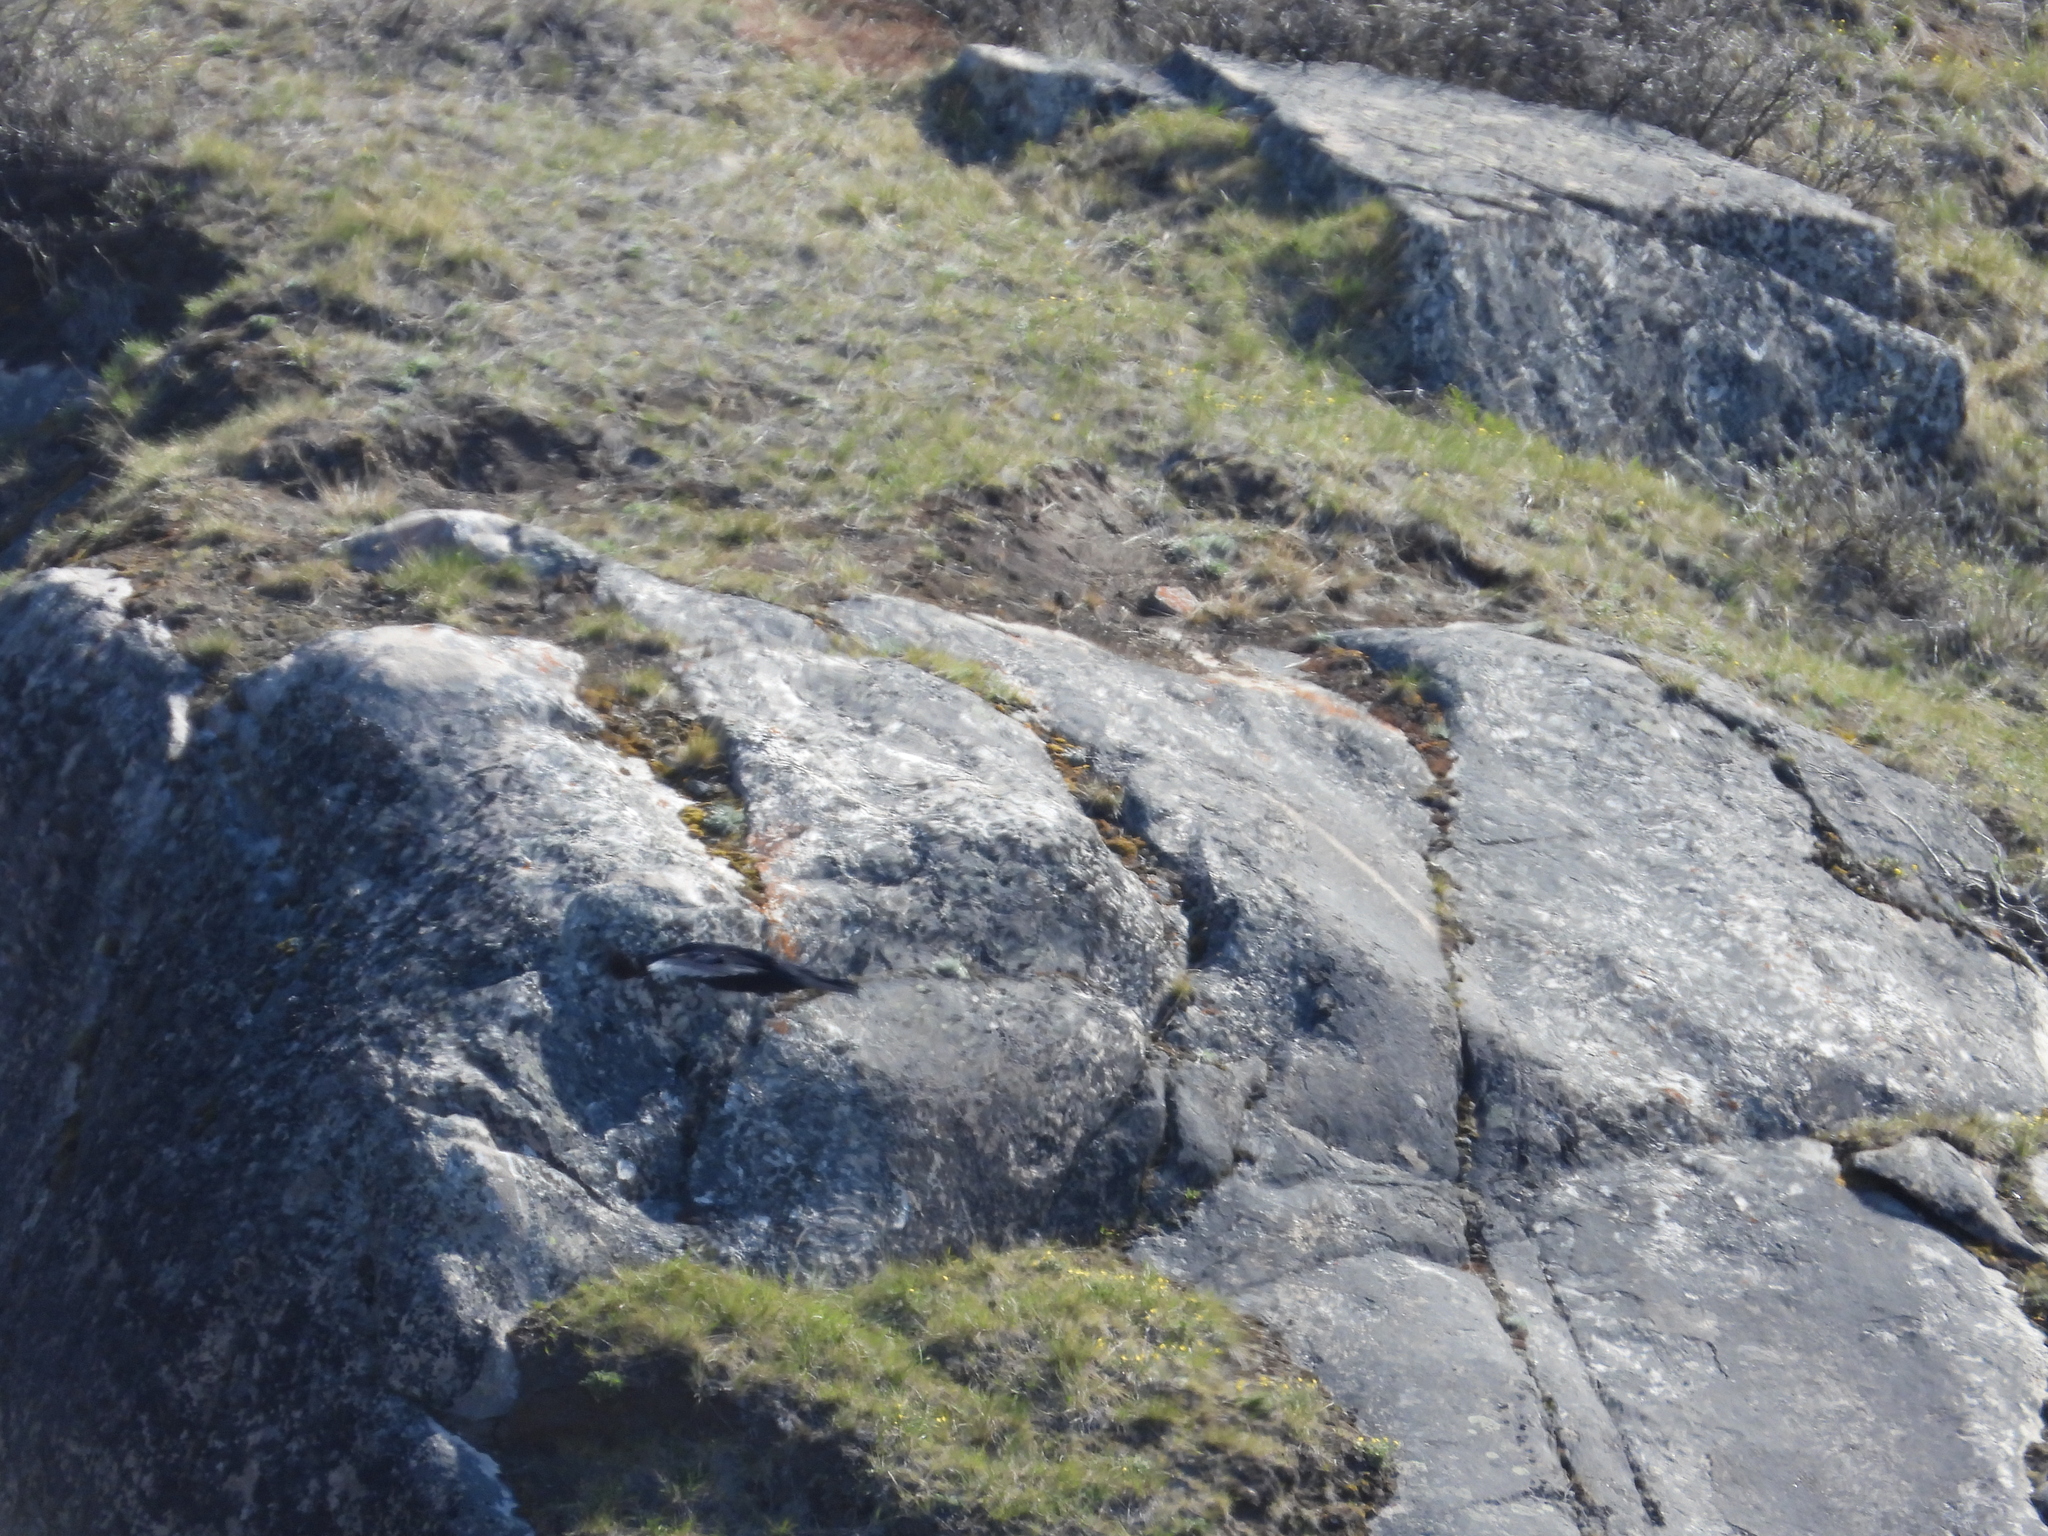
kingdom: Animalia
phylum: Chordata
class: Aves
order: Passeriformes
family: Corvidae
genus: Corvus
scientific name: Corvus corax
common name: Common raven
